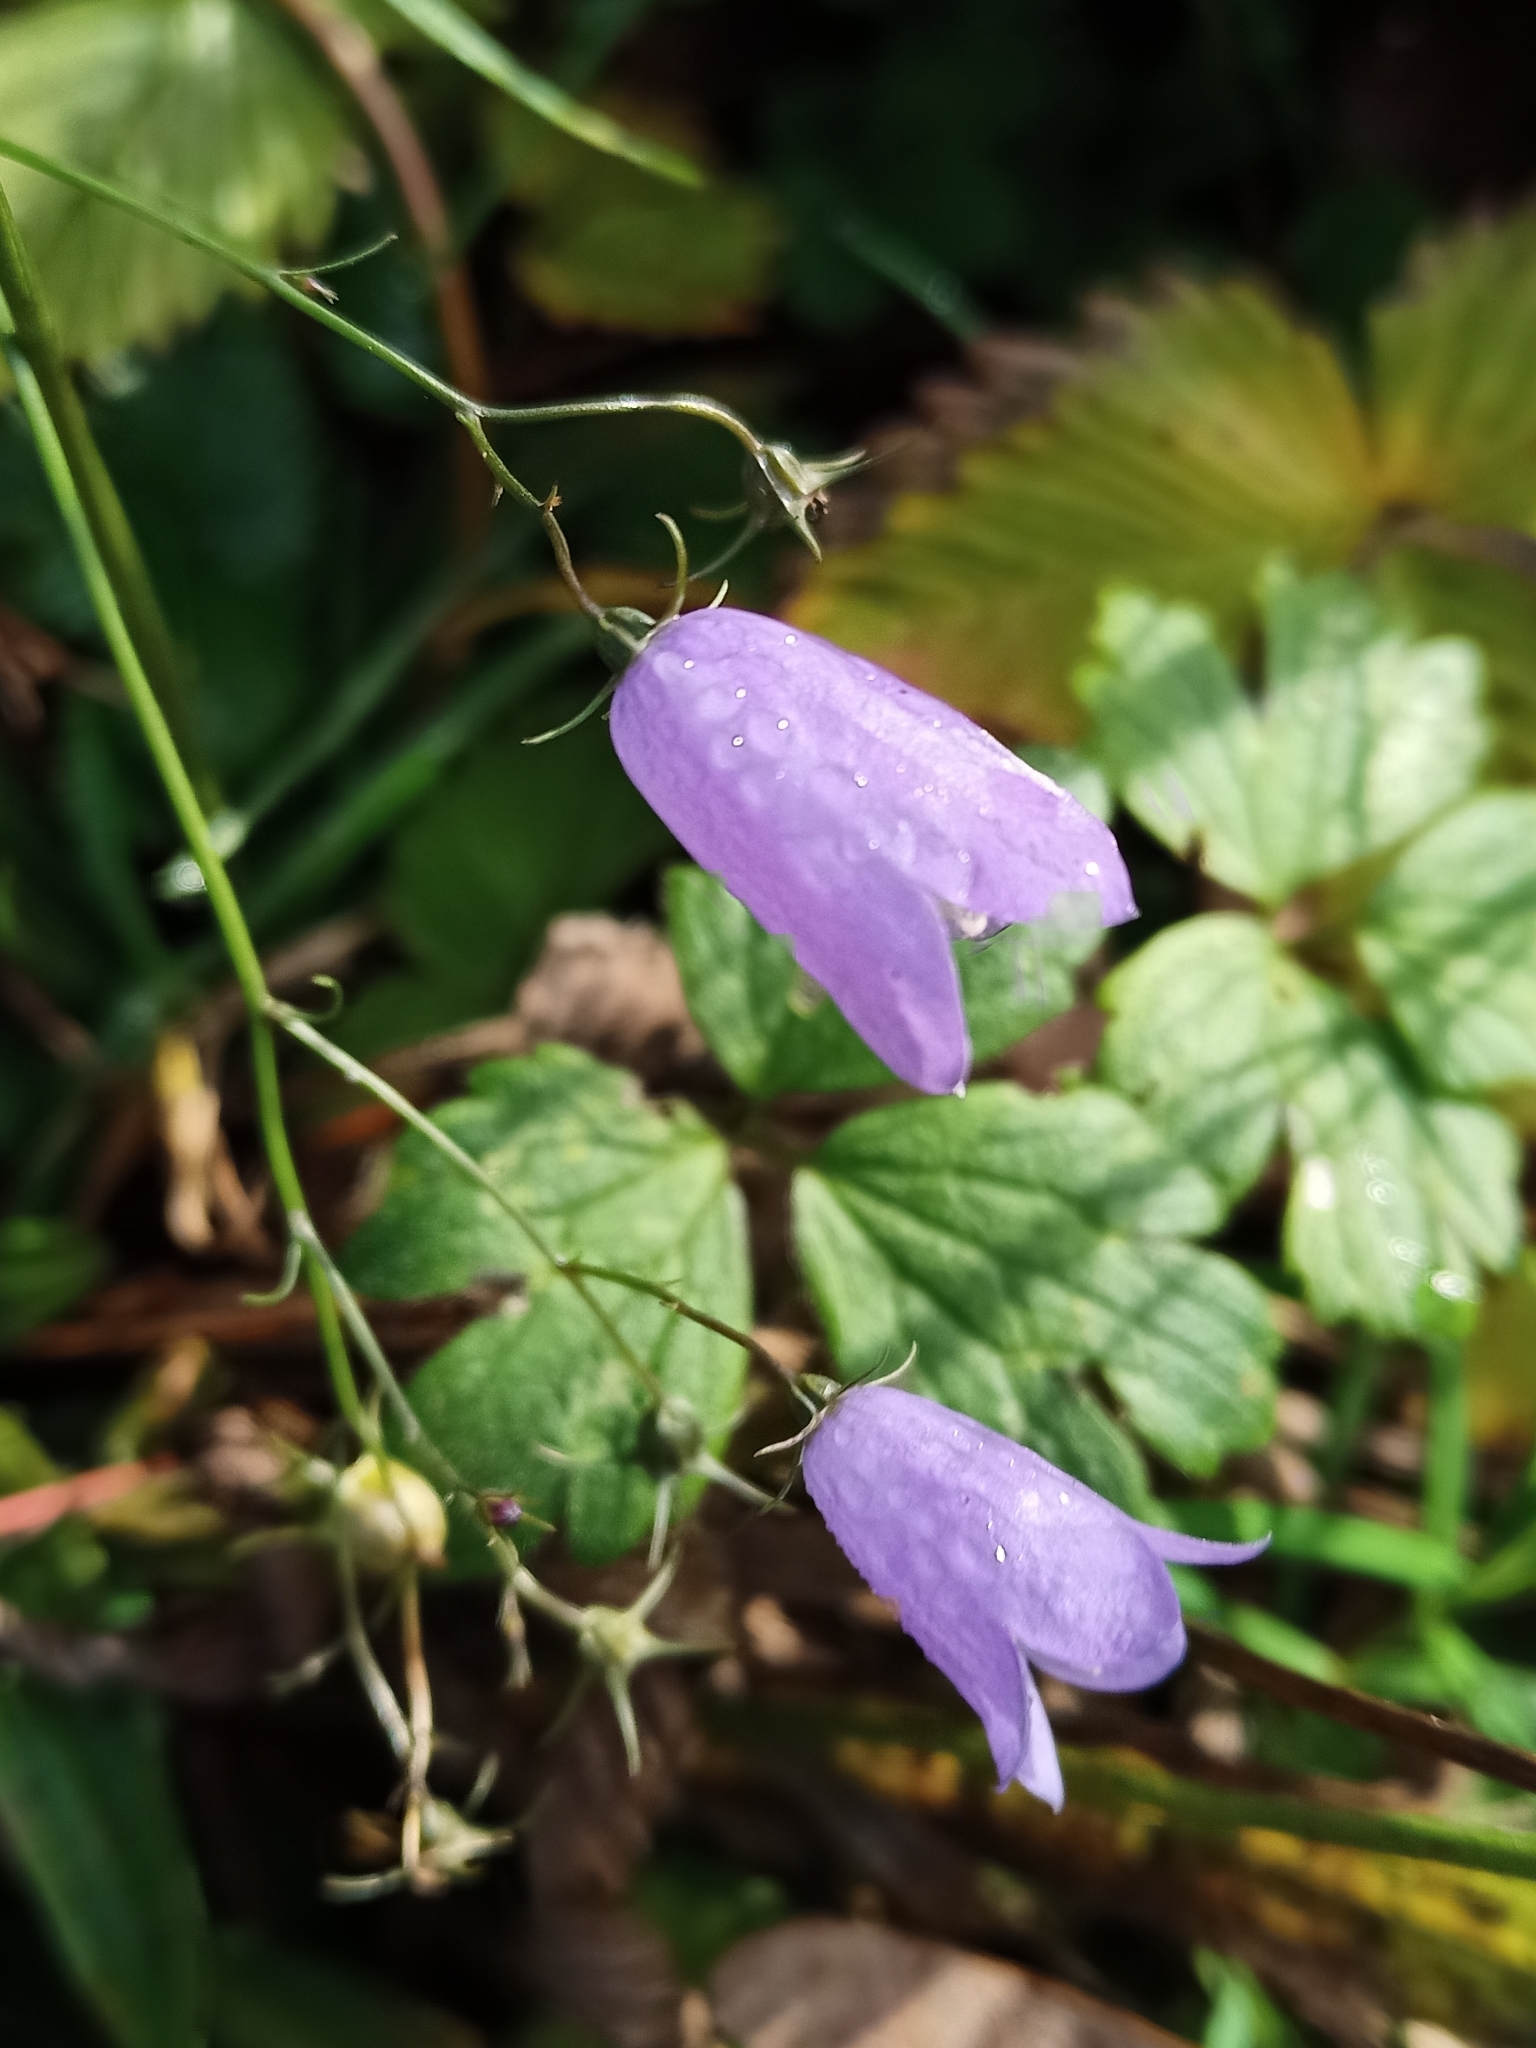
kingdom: Plantae
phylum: Tracheophyta
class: Magnoliopsida
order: Asterales
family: Campanulaceae
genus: Campanula
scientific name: Campanula rotundifolia
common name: Harebell
